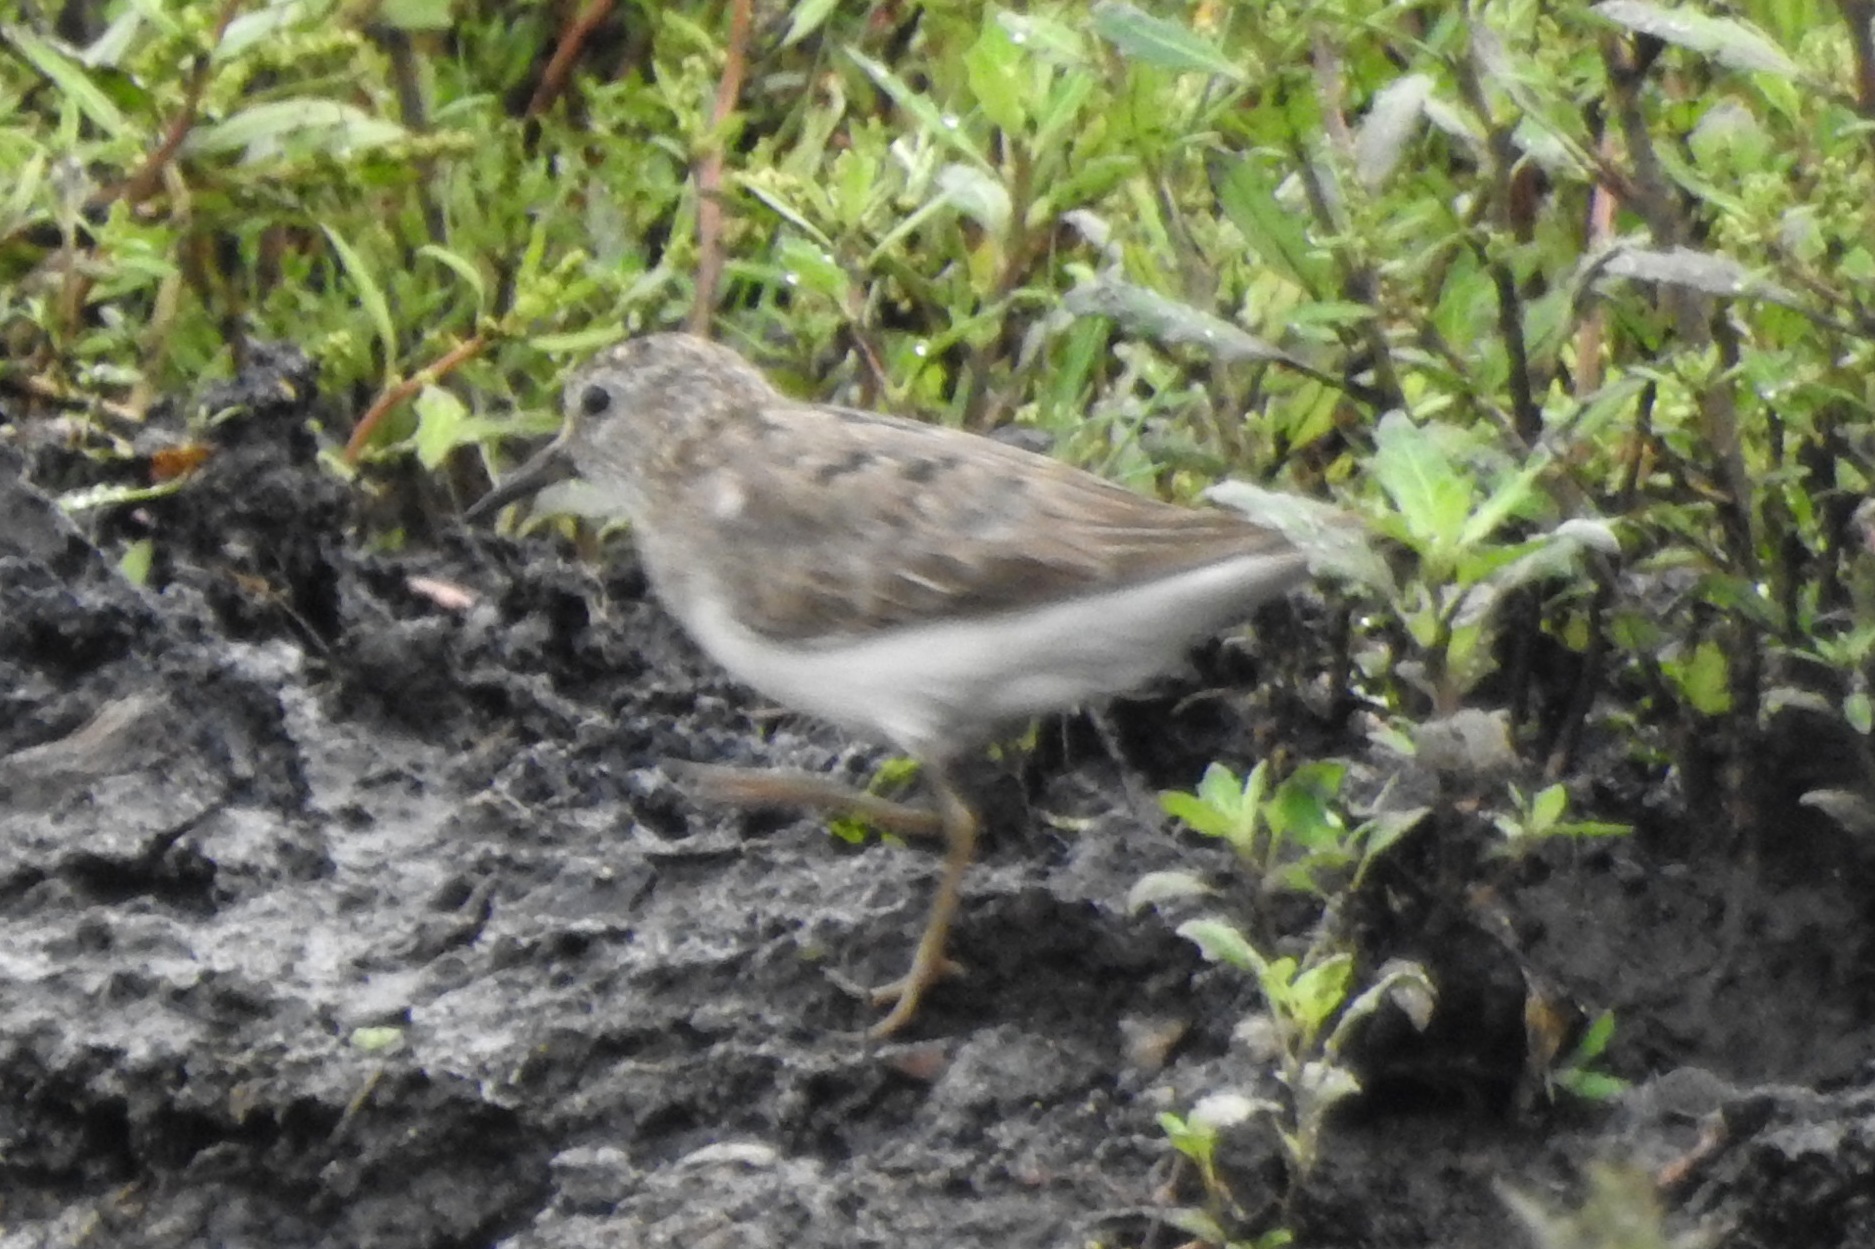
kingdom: Animalia
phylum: Chordata
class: Aves
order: Charadriiformes
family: Scolopacidae
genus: Calidris
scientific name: Calidris temminckii
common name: Temminck's stint
